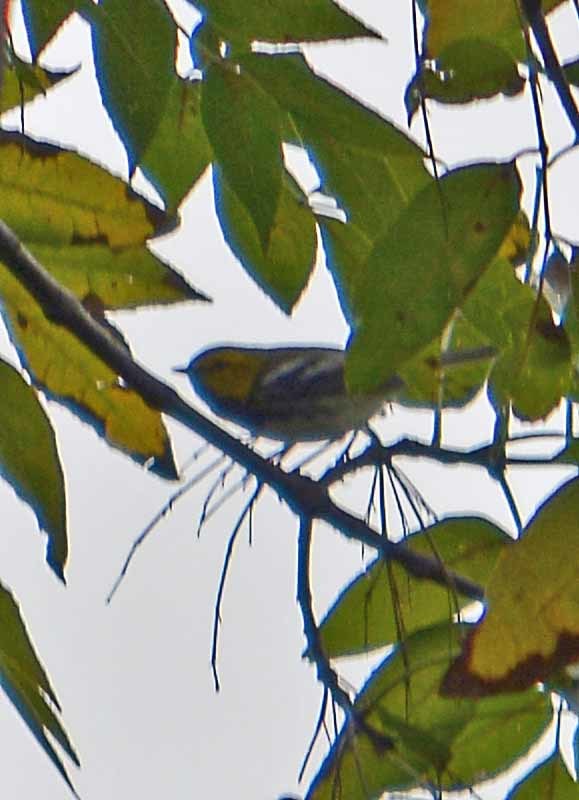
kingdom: Animalia
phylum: Chordata
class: Aves
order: Passeriformes
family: Parulidae
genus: Setophaga
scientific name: Setophaga occidentalis
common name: Hermit warbler
